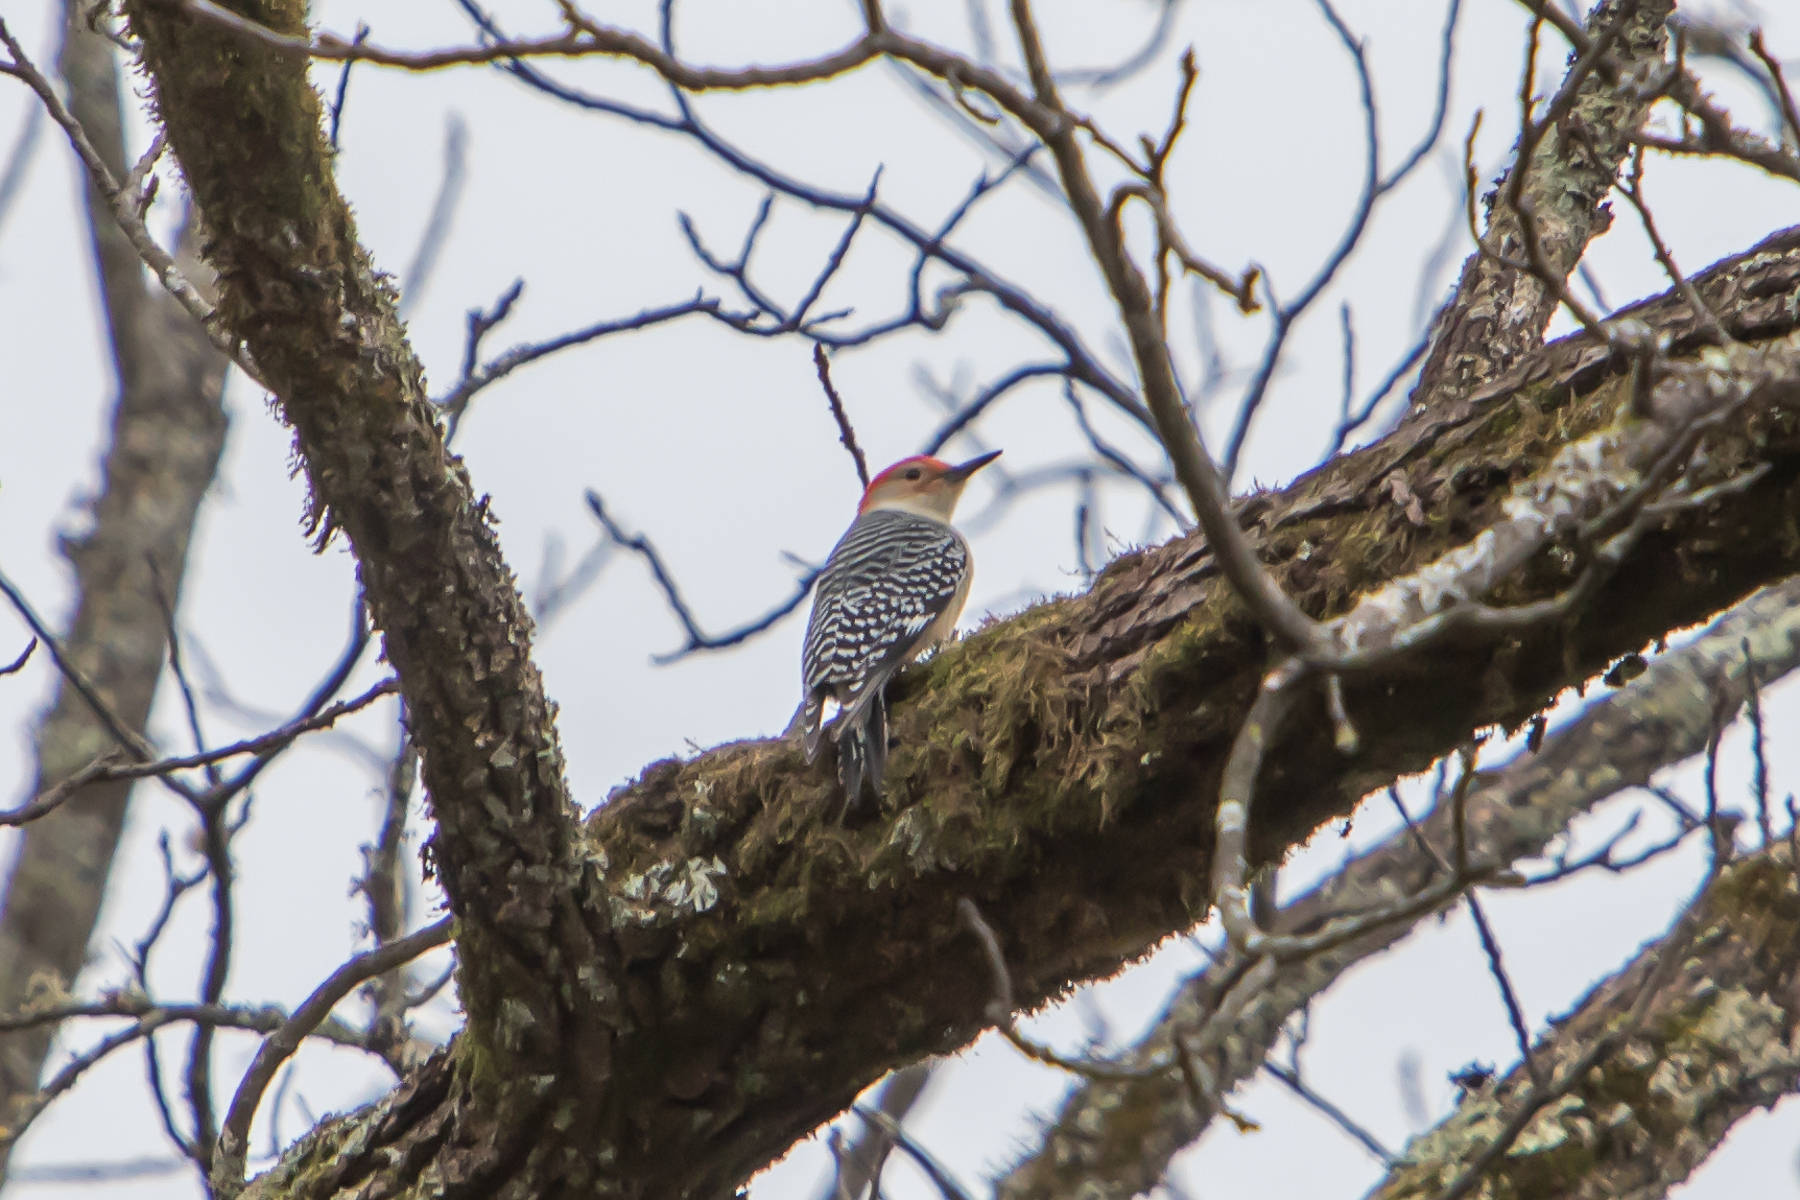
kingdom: Animalia
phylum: Chordata
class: Aves
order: Piciformes
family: Picidae
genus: Melanerpes
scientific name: Melanerpes carolinus
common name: Red-bellied woodpecker
